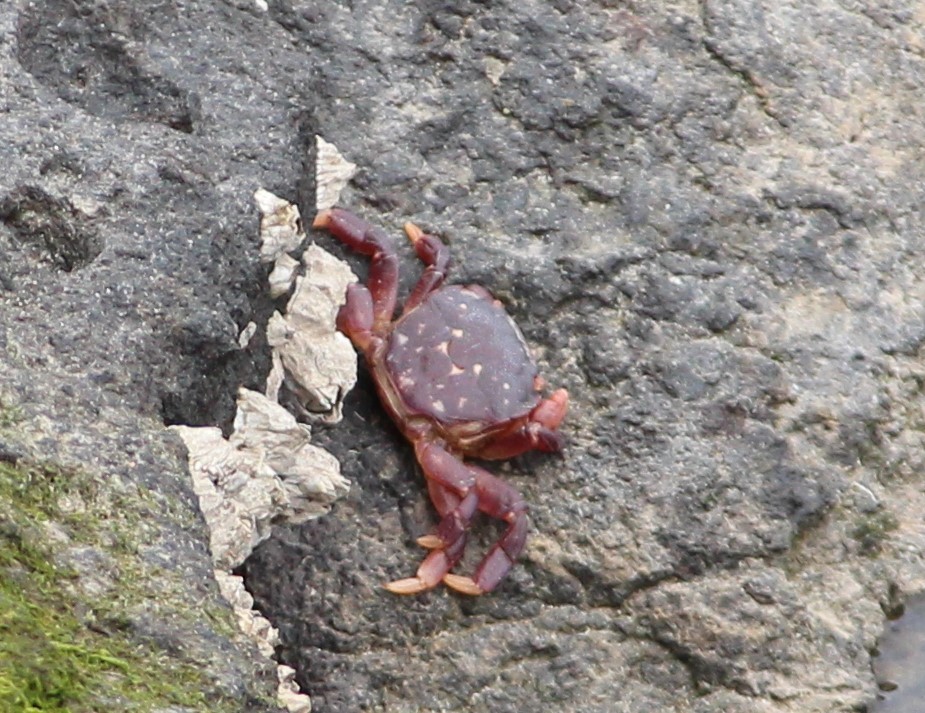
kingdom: Animalia
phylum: Arthropoda
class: Malacostraca
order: Decapoda
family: Varunidae
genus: Hemigrapsus
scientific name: Hemigrapsus nudus
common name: Purple shore crab
